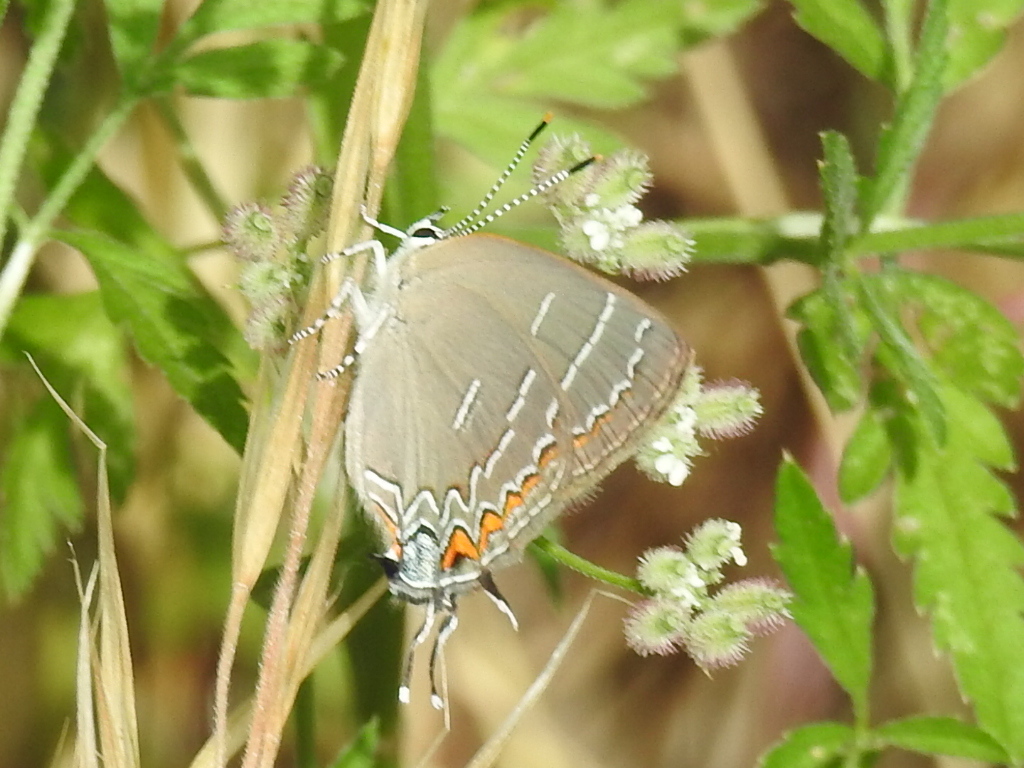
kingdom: Animalia
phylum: Arthropoda
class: Insecta
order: Lepidoptera
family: Lycaenidae
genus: Phaeostrymon
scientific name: Phaeostrymon alcestis
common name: Soapberry hairstreak
